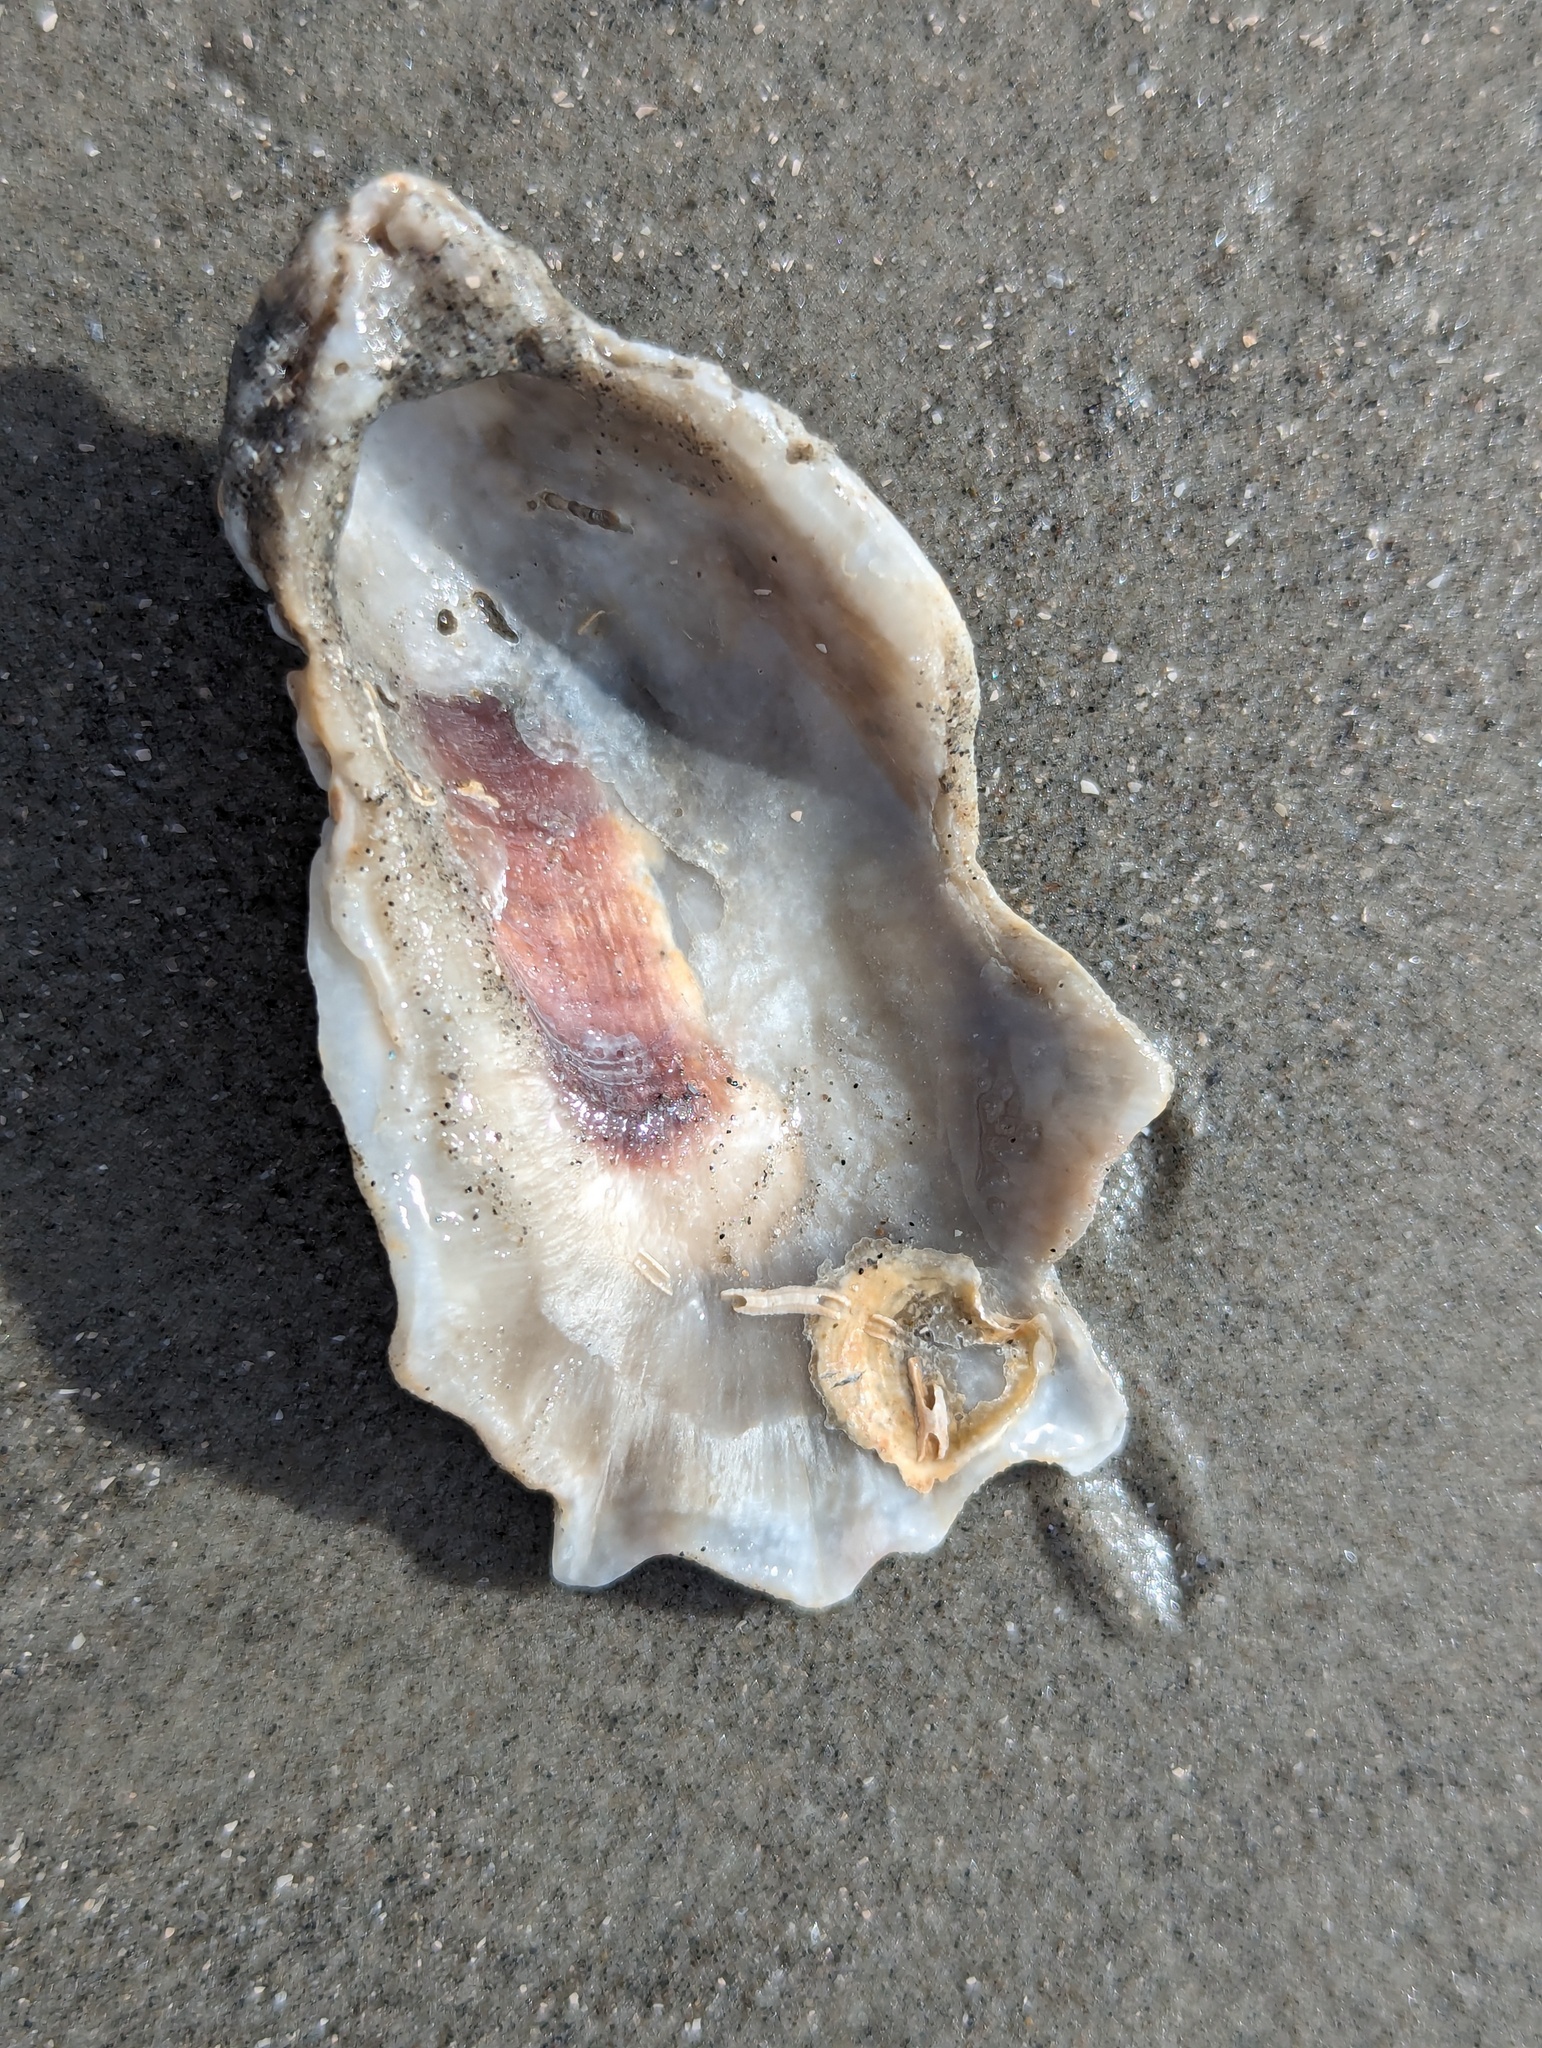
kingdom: Animalia
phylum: Mollusca
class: Bivalvia
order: Ostreida
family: Ostreidae
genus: Crassostrea
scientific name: Crassostrea virginica
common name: American oyster
